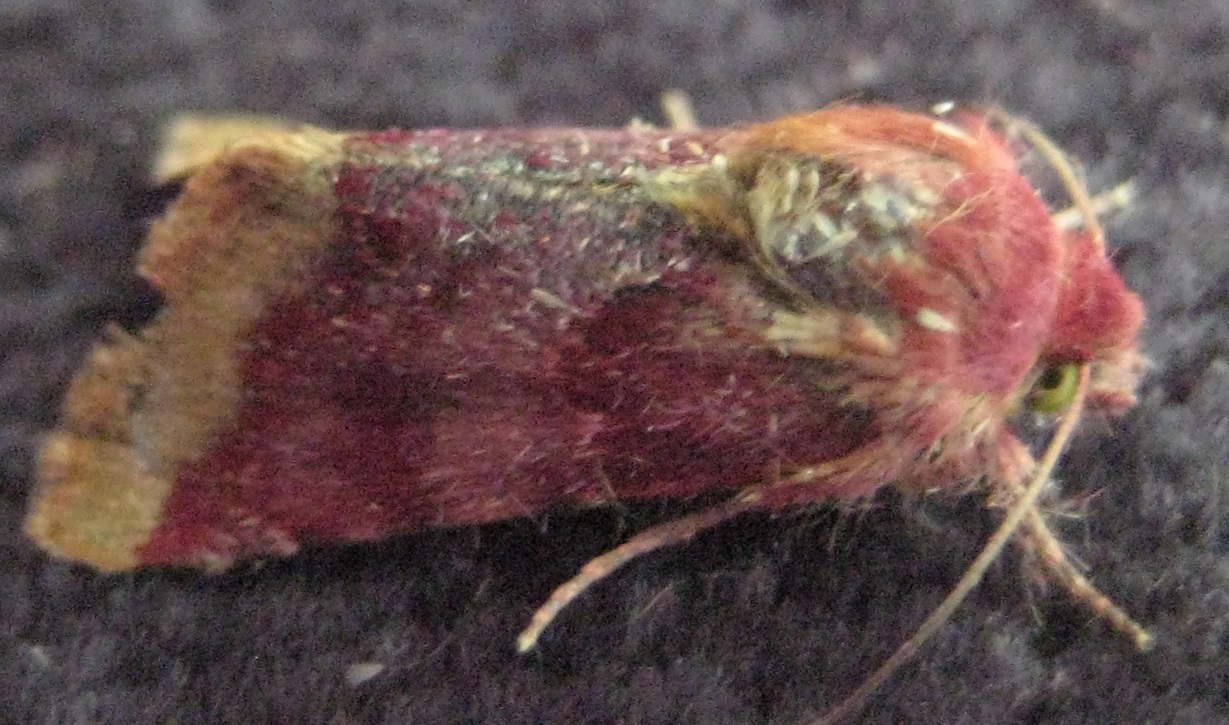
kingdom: Animalia
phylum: Arthropoda
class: Insecta
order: Lepidoptera
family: Noctuidae
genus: Schinia
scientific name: Schinia bina
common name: Bina flower moth
